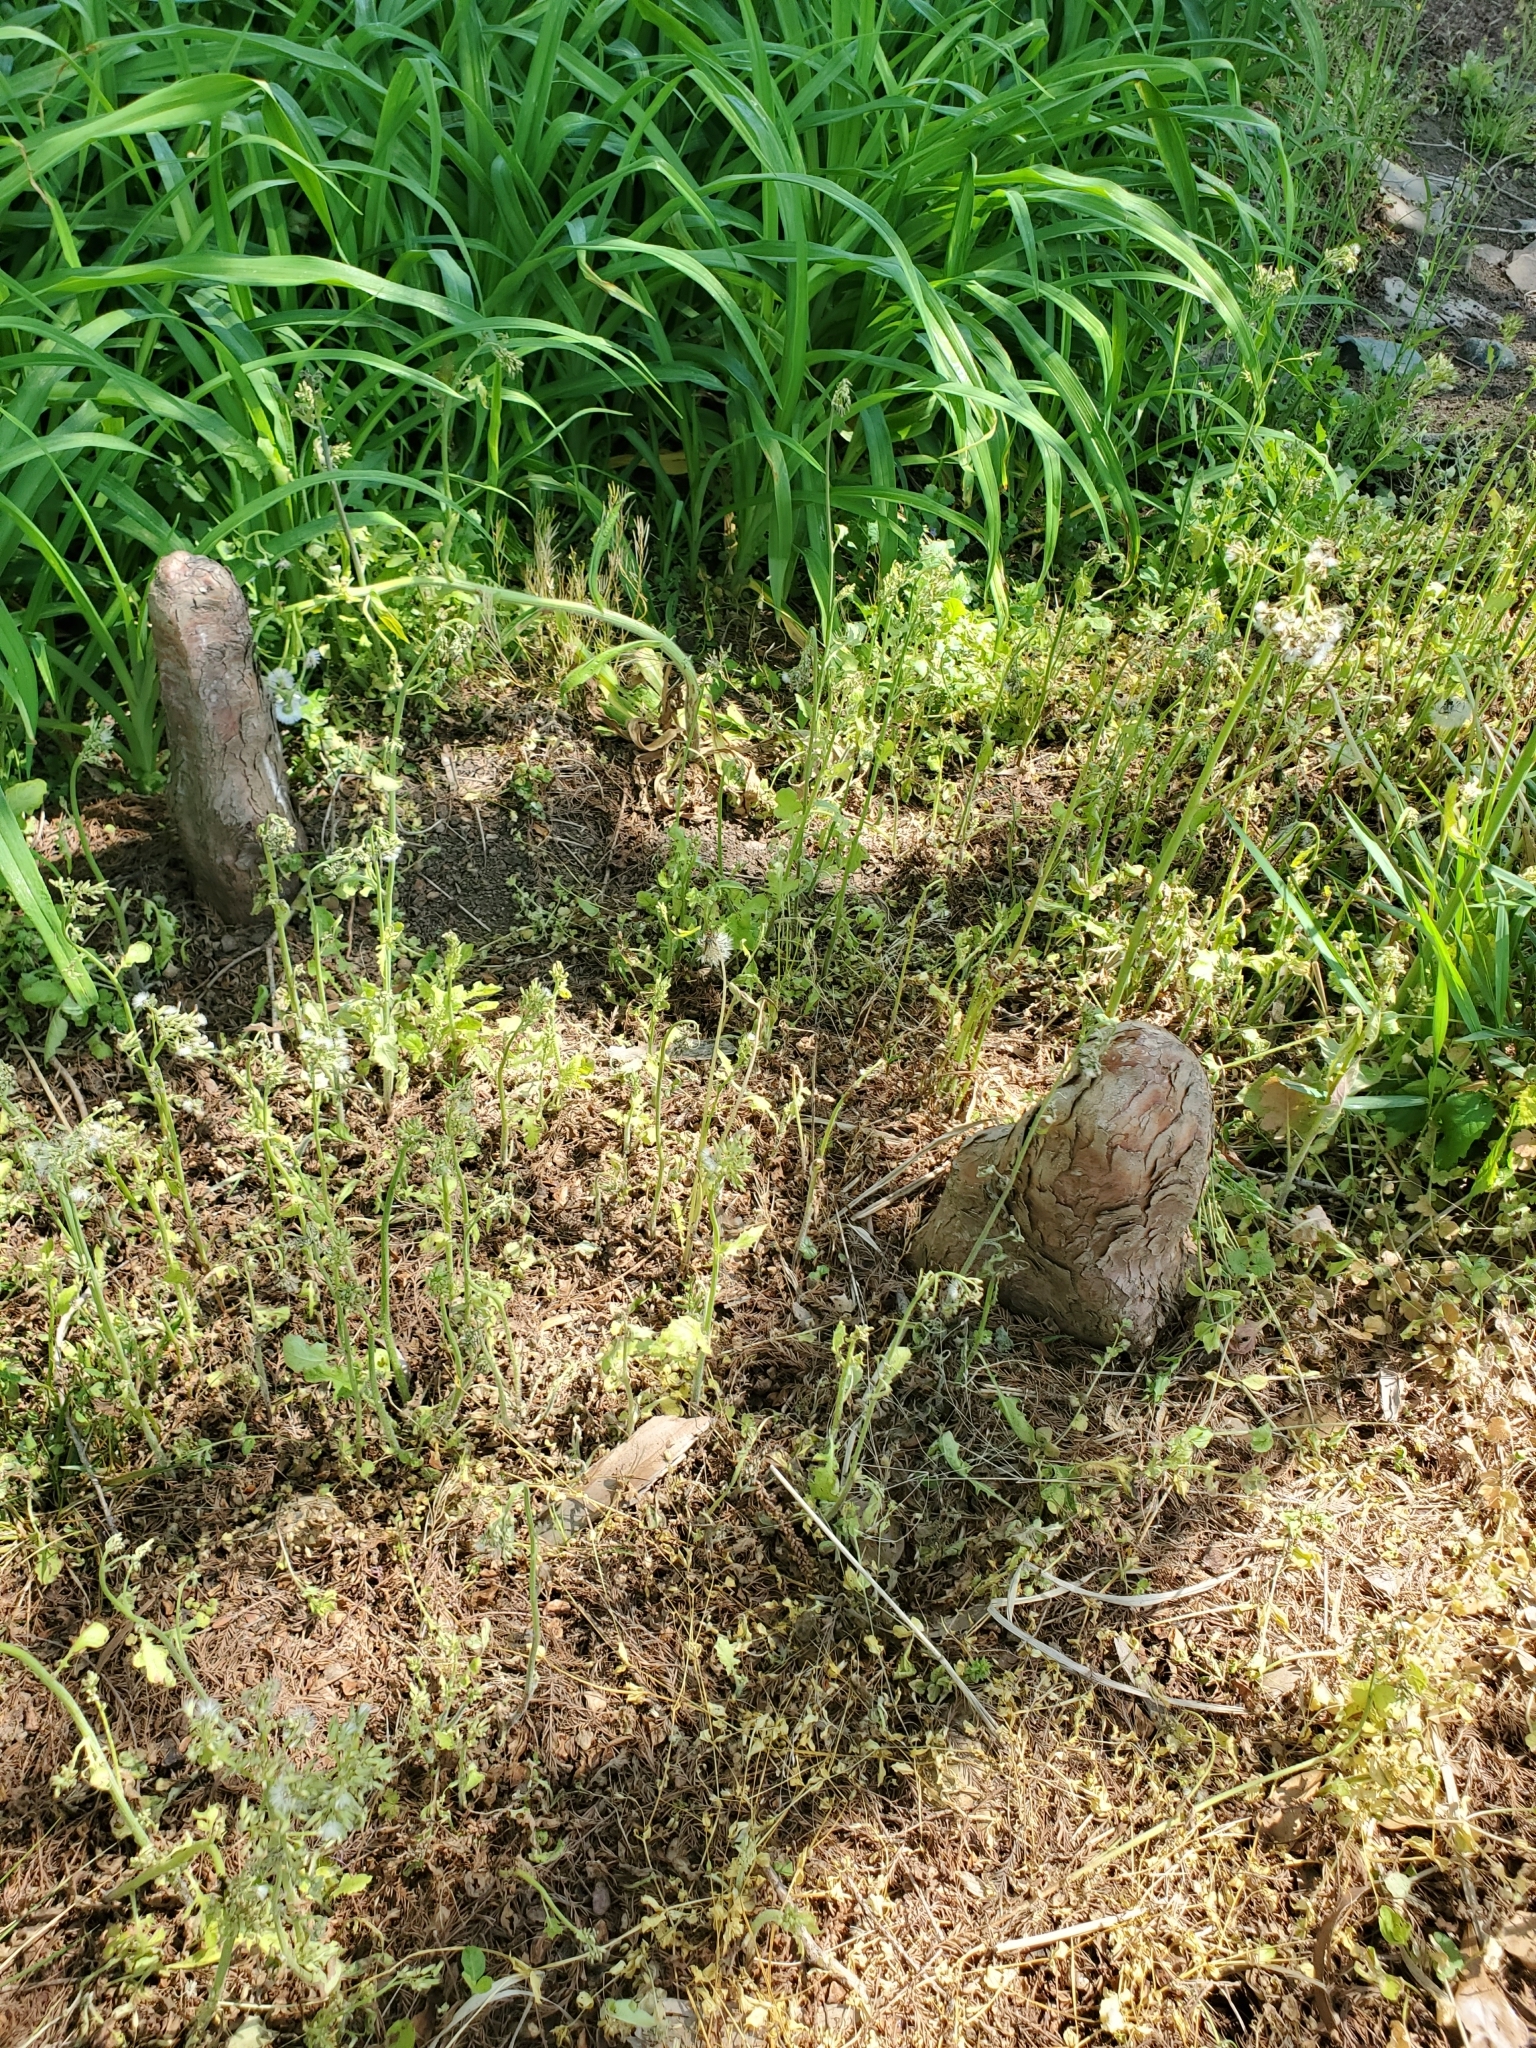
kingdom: Plantae
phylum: Tracheophyta
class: Pinopsida
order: Pinales
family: Cupressaceae
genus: Taxodium
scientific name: Taxodium distichum
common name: Bald cypress
